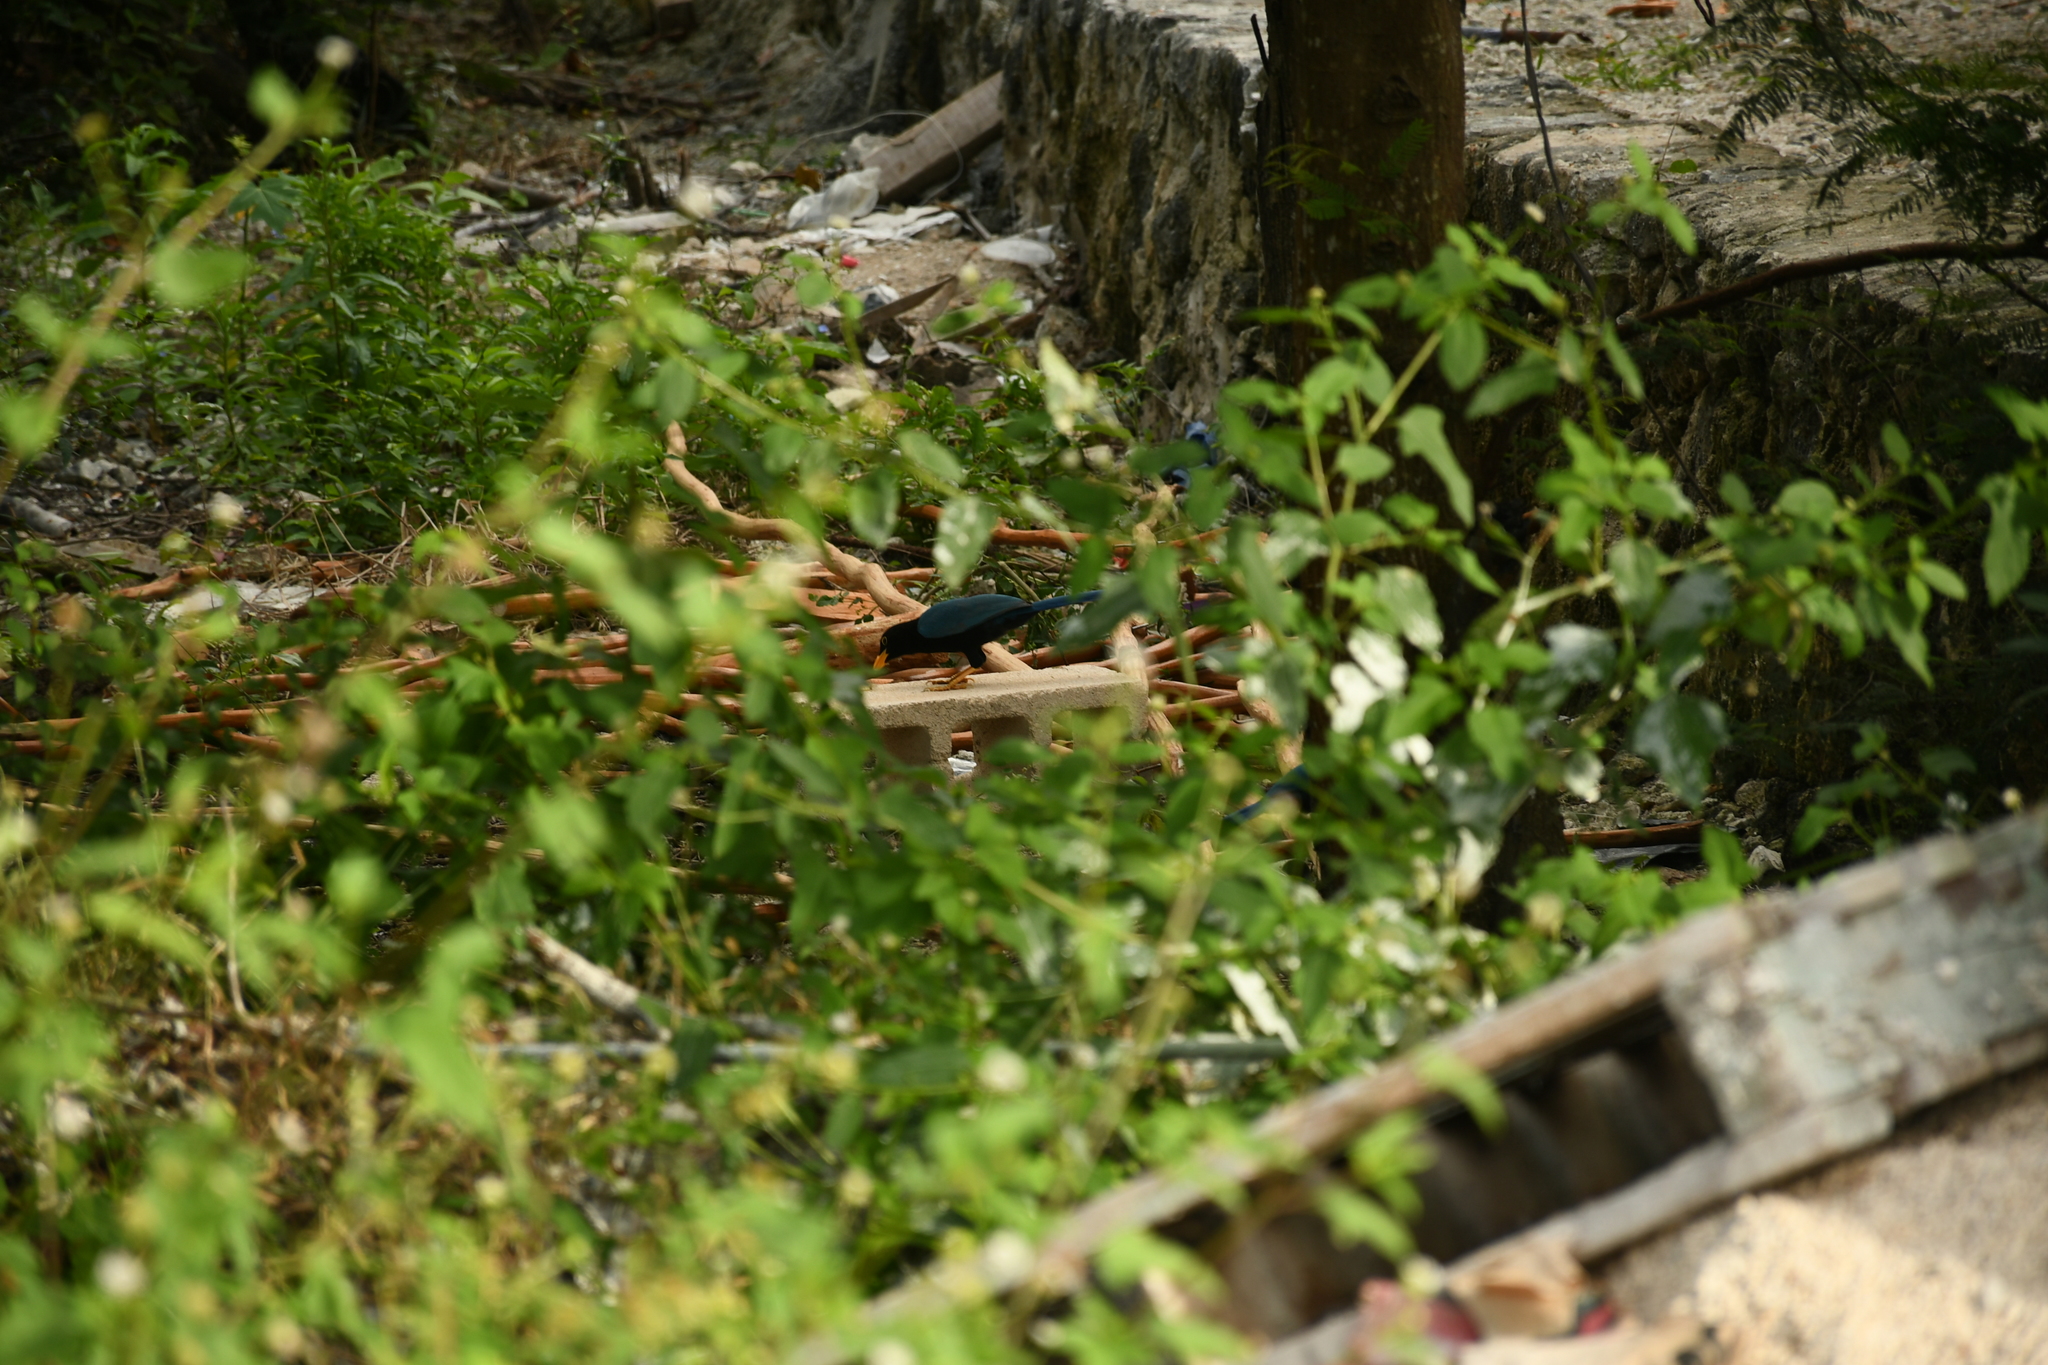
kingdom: Animalia
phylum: Chordata
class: Aves
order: Passeriformes
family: Corvidae
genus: Cyanocorax
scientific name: Cyanocorax yucatanicus
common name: Yucatan jay
